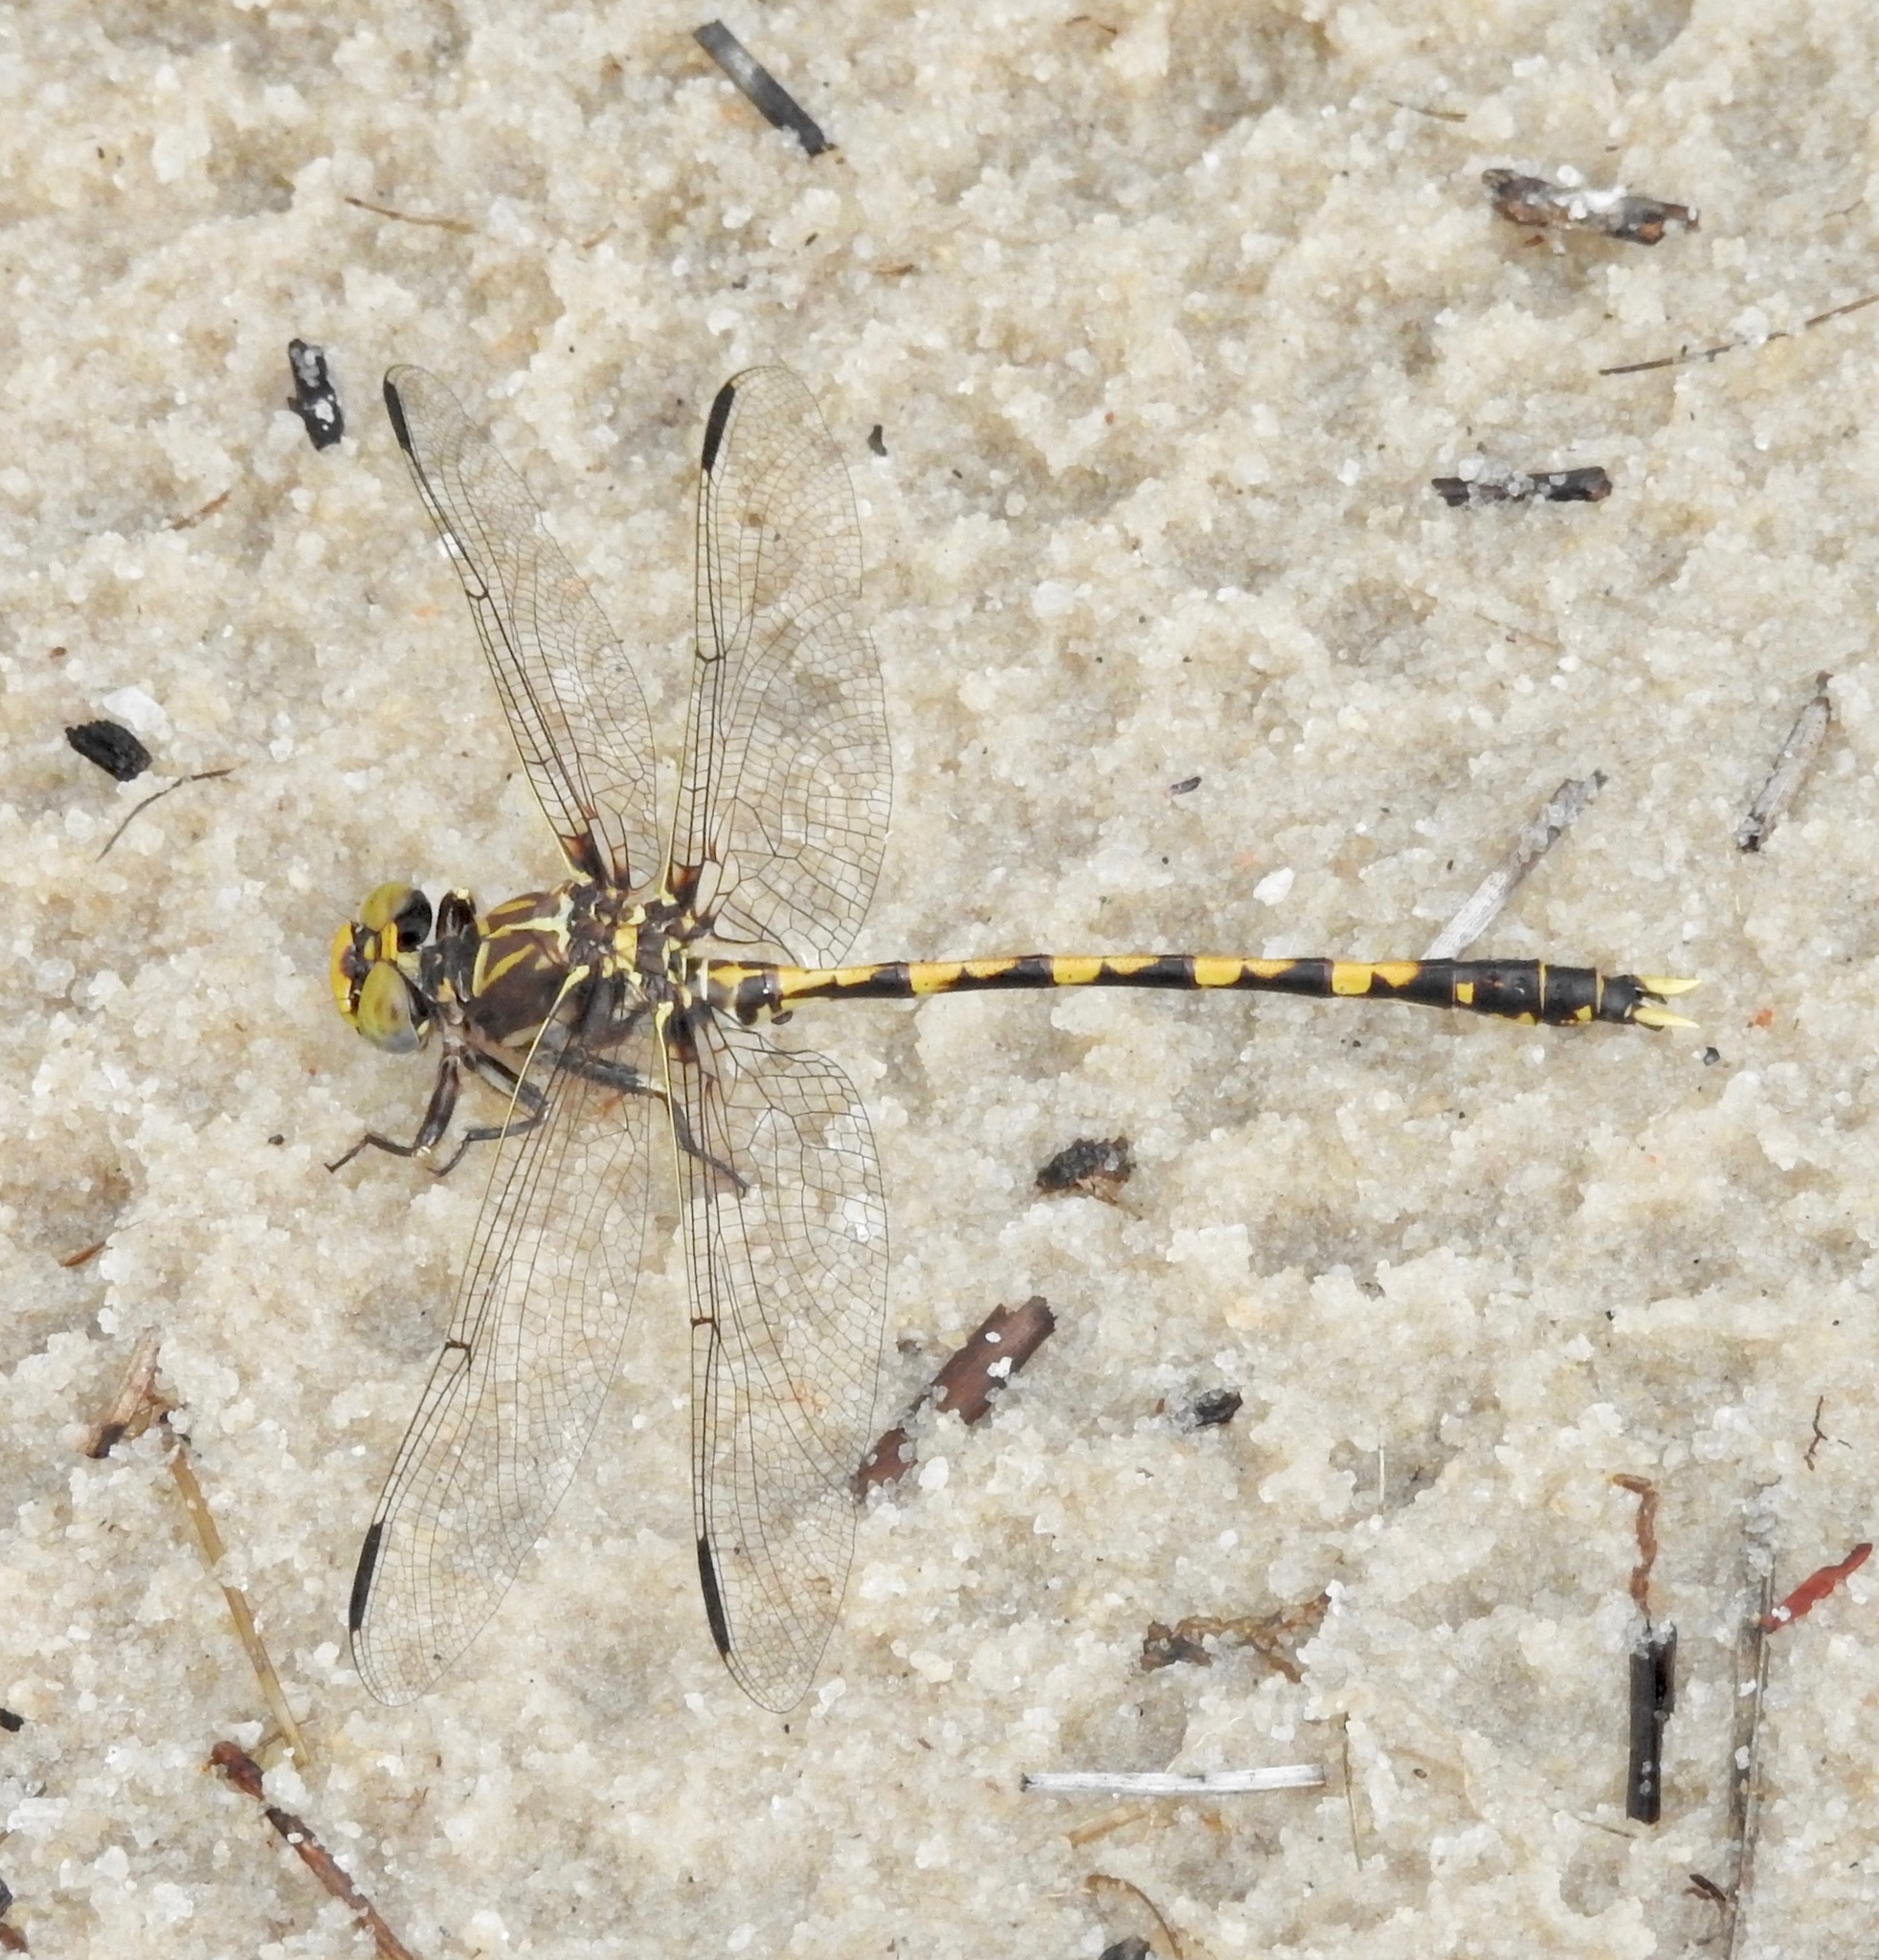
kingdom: Animalia
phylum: Arthropoda
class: Insecta
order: Odonata
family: Gomphidae
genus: Progomphus
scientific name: Progomphus bellei
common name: Belle's sanddragon
